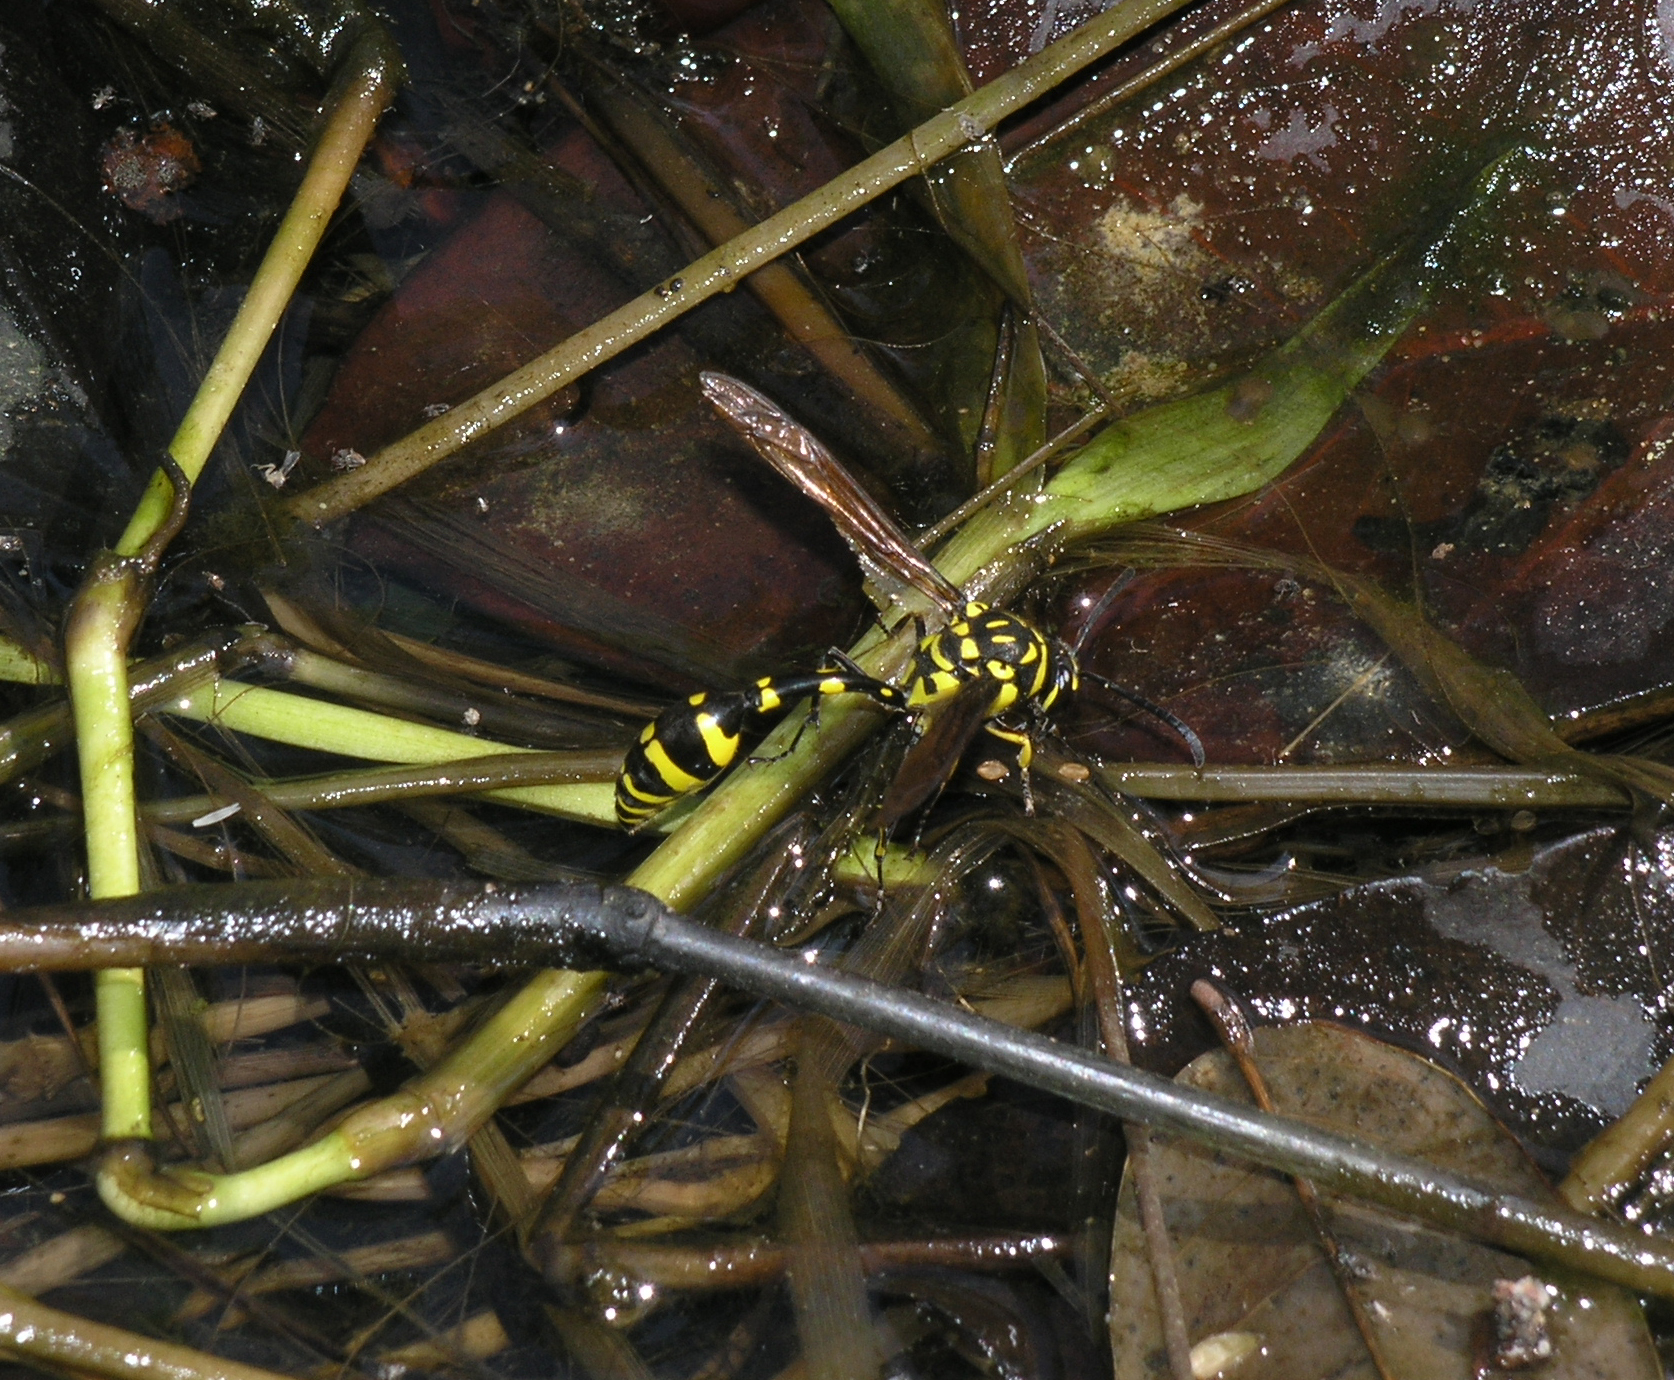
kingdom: Animalia
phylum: Arthropoda
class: Insecta
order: Hymenoptera
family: Eumenidae
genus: Phimenes
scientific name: Phimenes flavopictus
